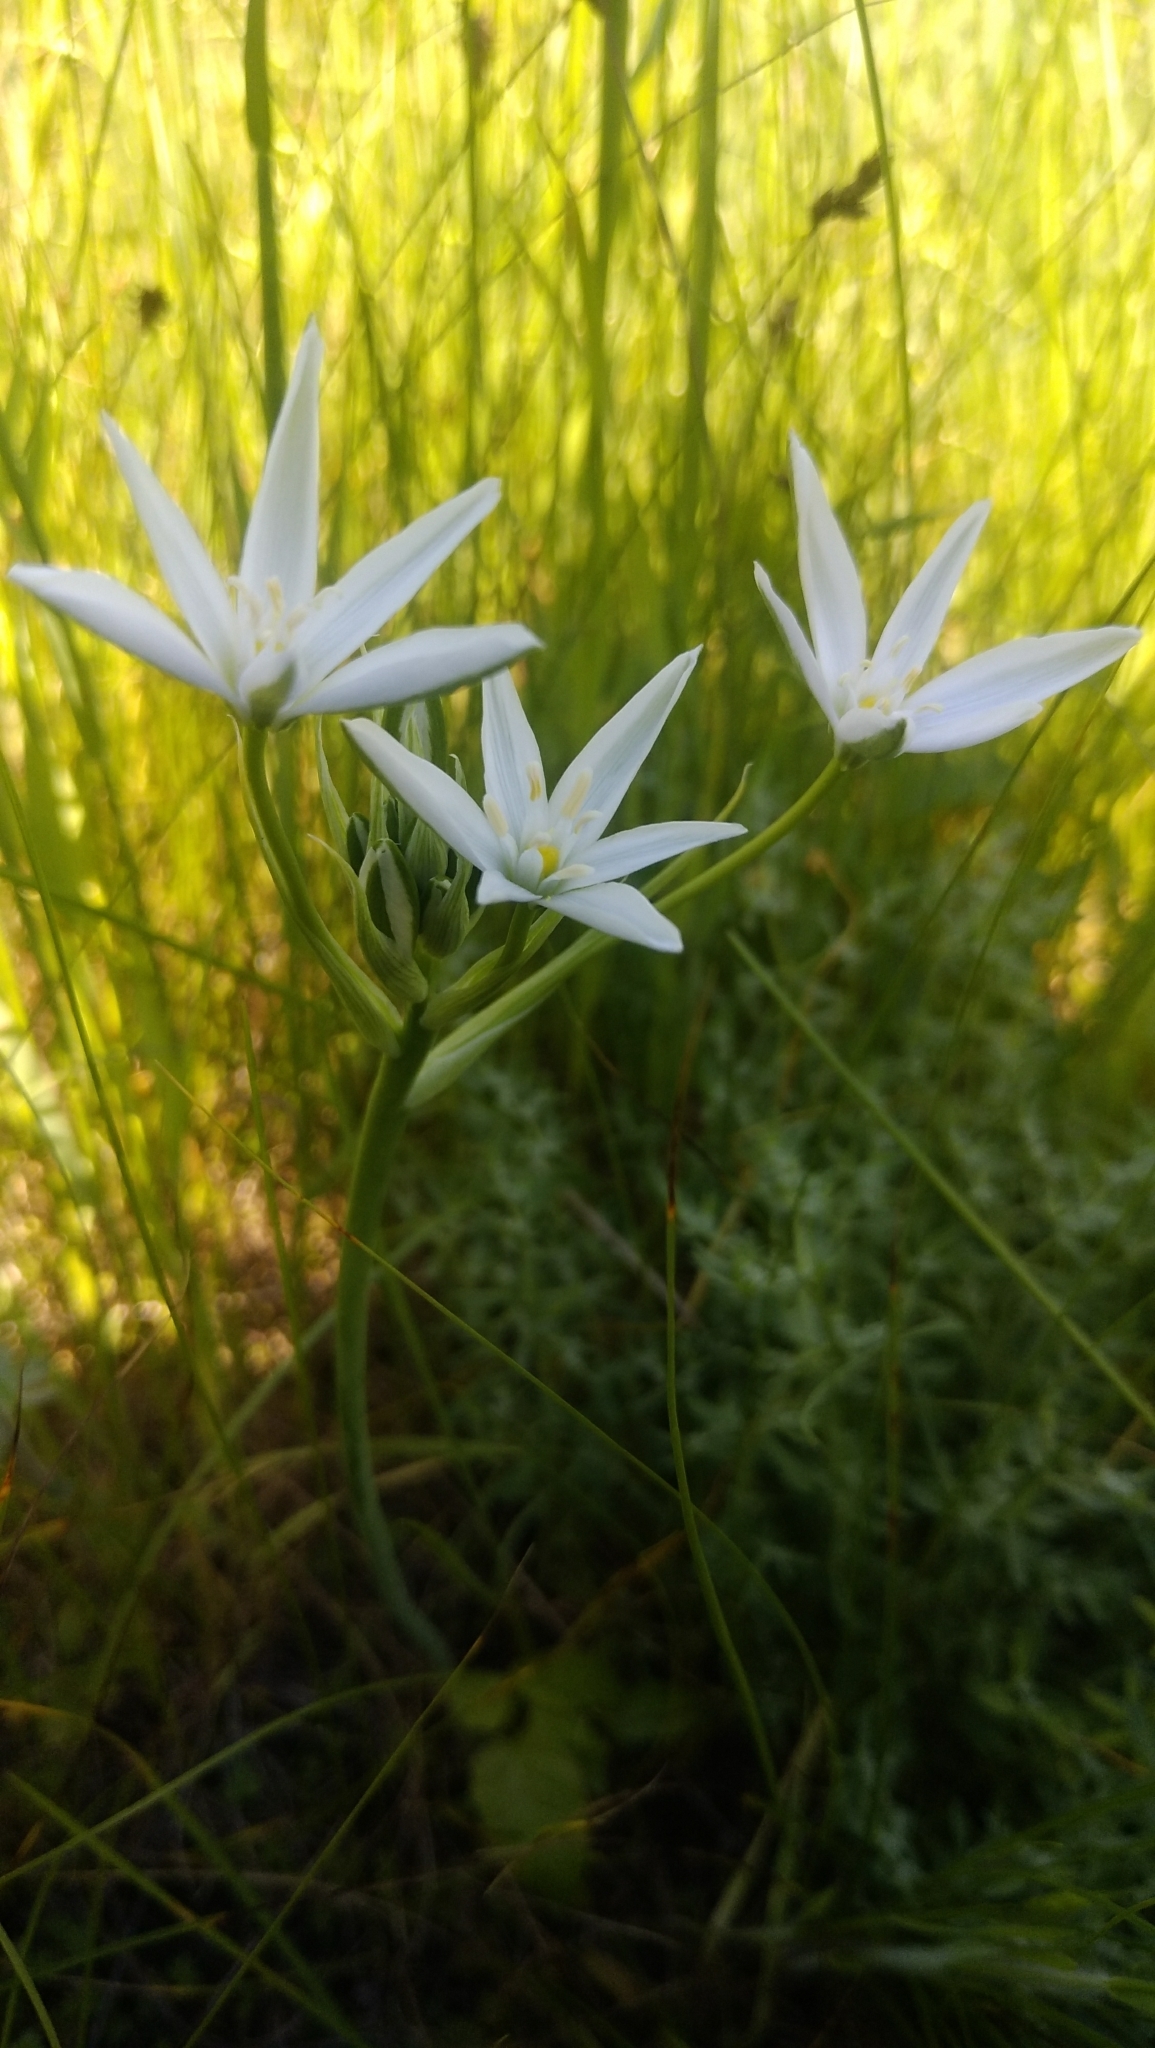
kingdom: Plantae
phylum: Tracheophyta
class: Liliopsida
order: Asparagales
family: Asparagaceae
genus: Ornithogalum
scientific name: Ornithogalum orthophyllum
